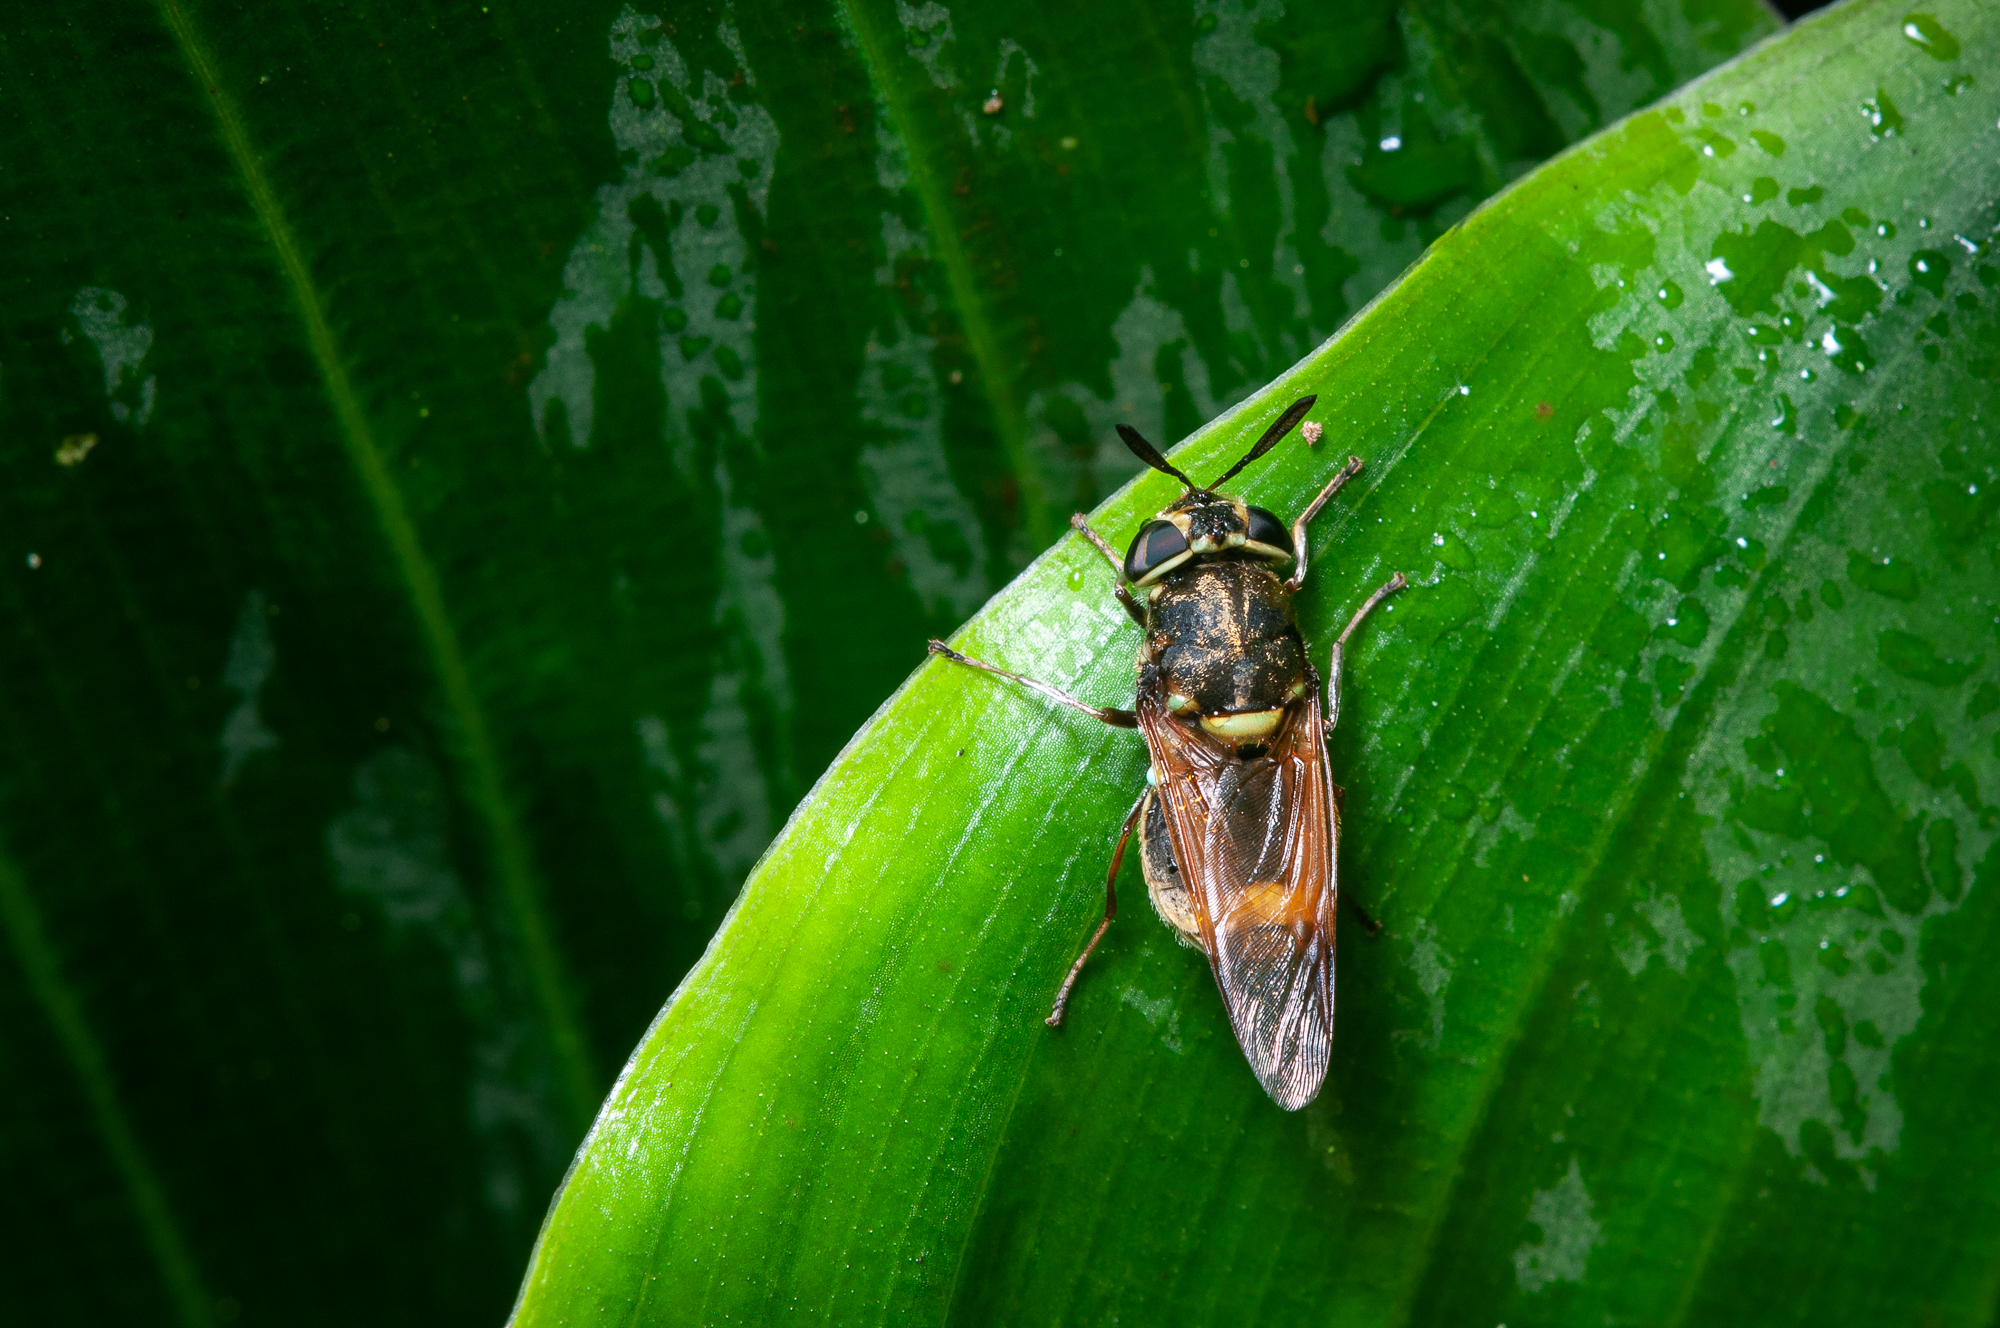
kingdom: Animalia
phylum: Arthropoda
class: Insecta
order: Diptera
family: Stratiomyidae
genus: Hoplitimyia
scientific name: Hoplitimyia mutabilis
